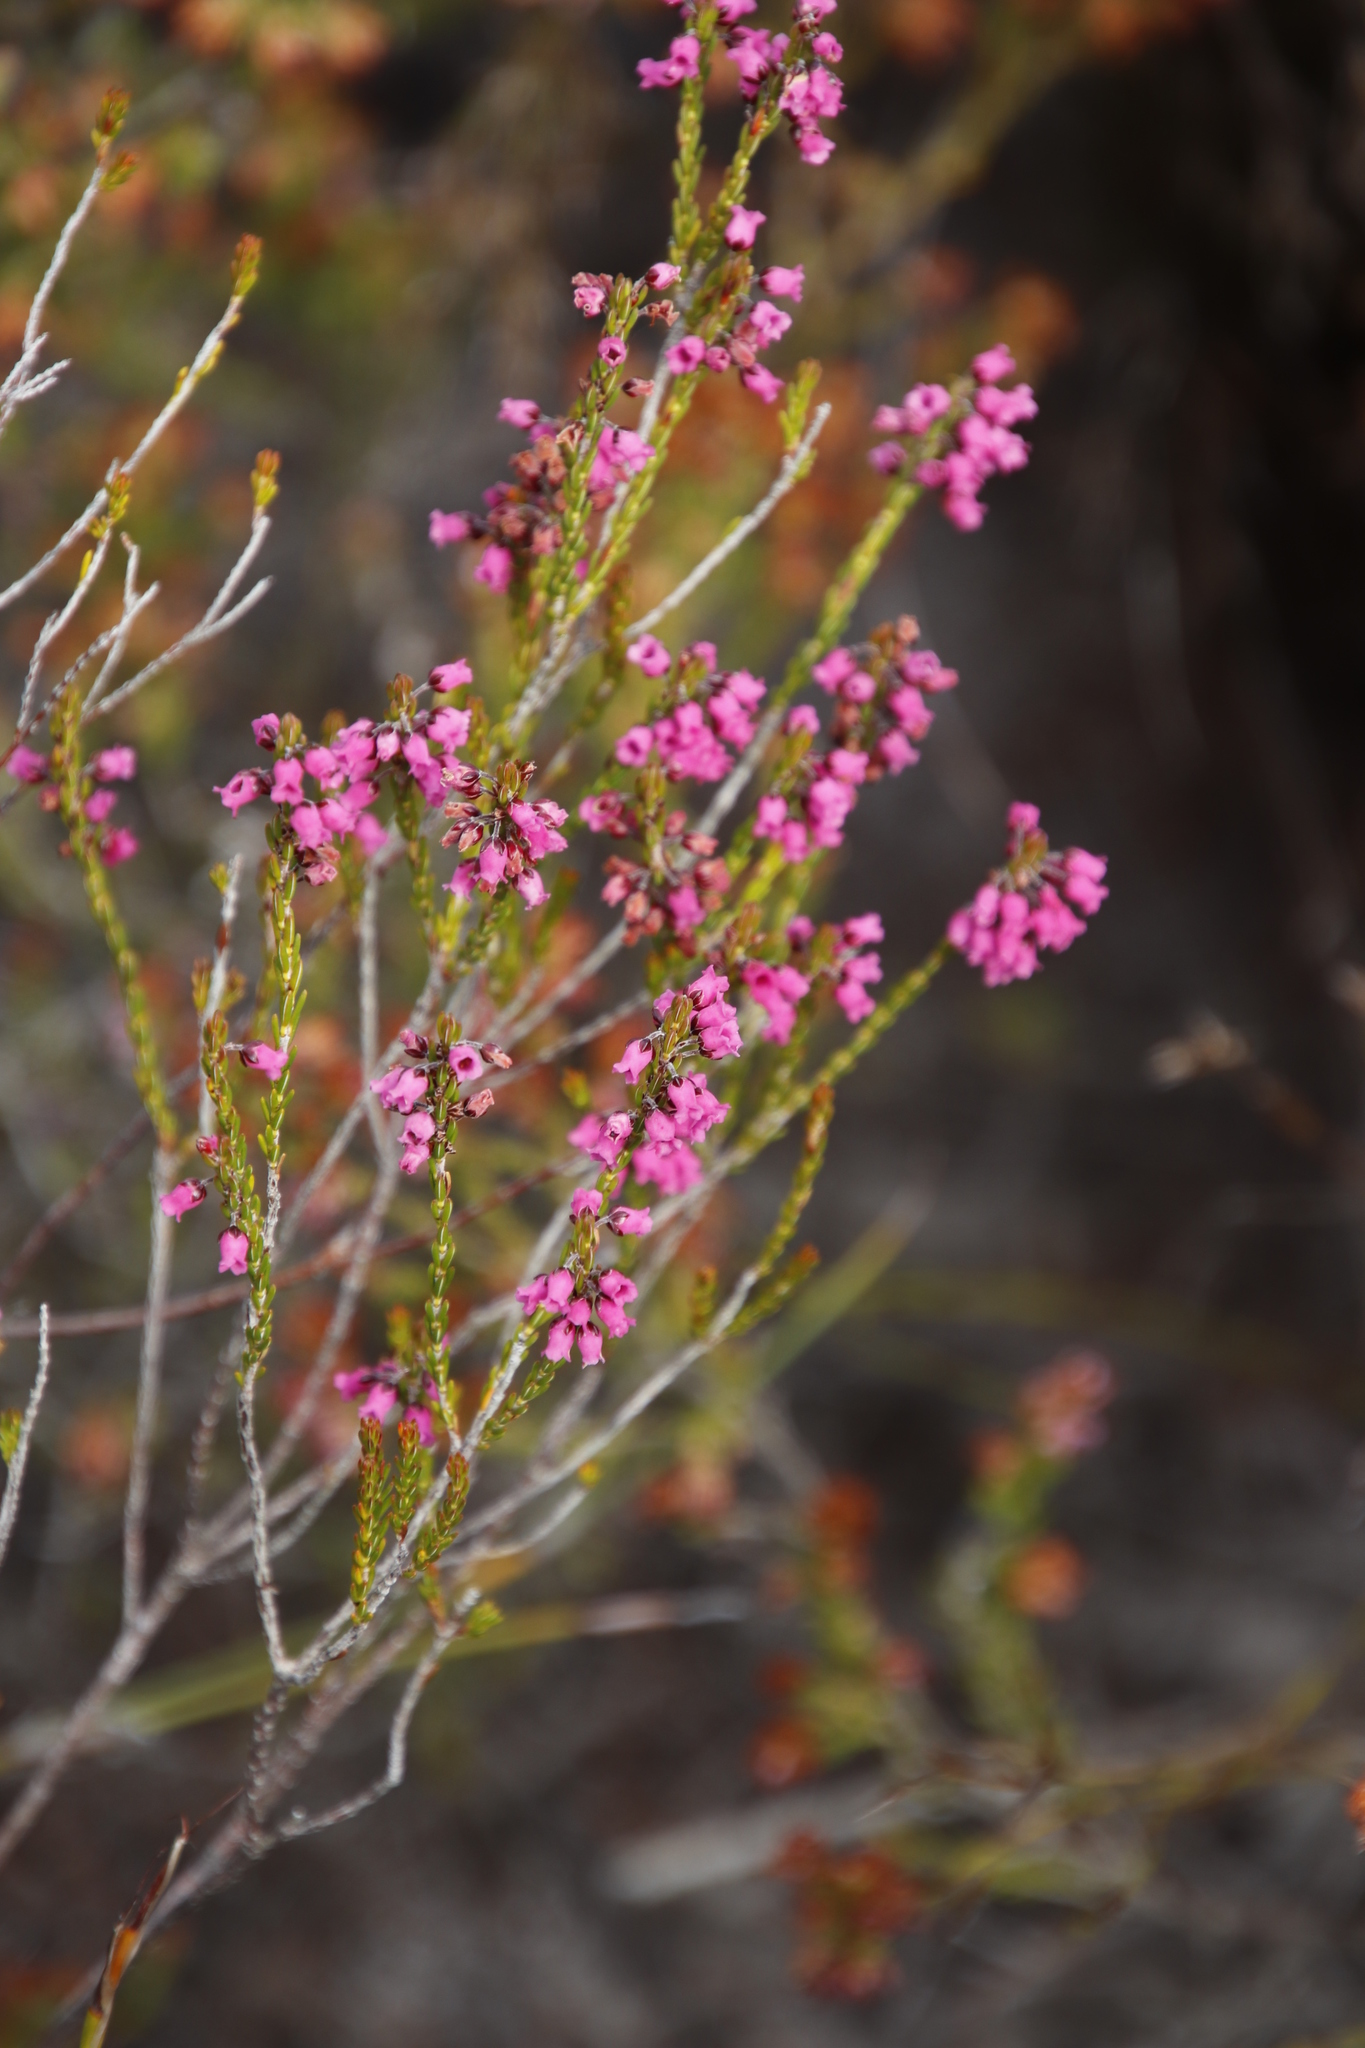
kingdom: Plantae
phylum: Tracheophyta
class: Magnoliopsida
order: Ericales
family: Ericaceae
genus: Erica
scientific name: Erica pulchella
